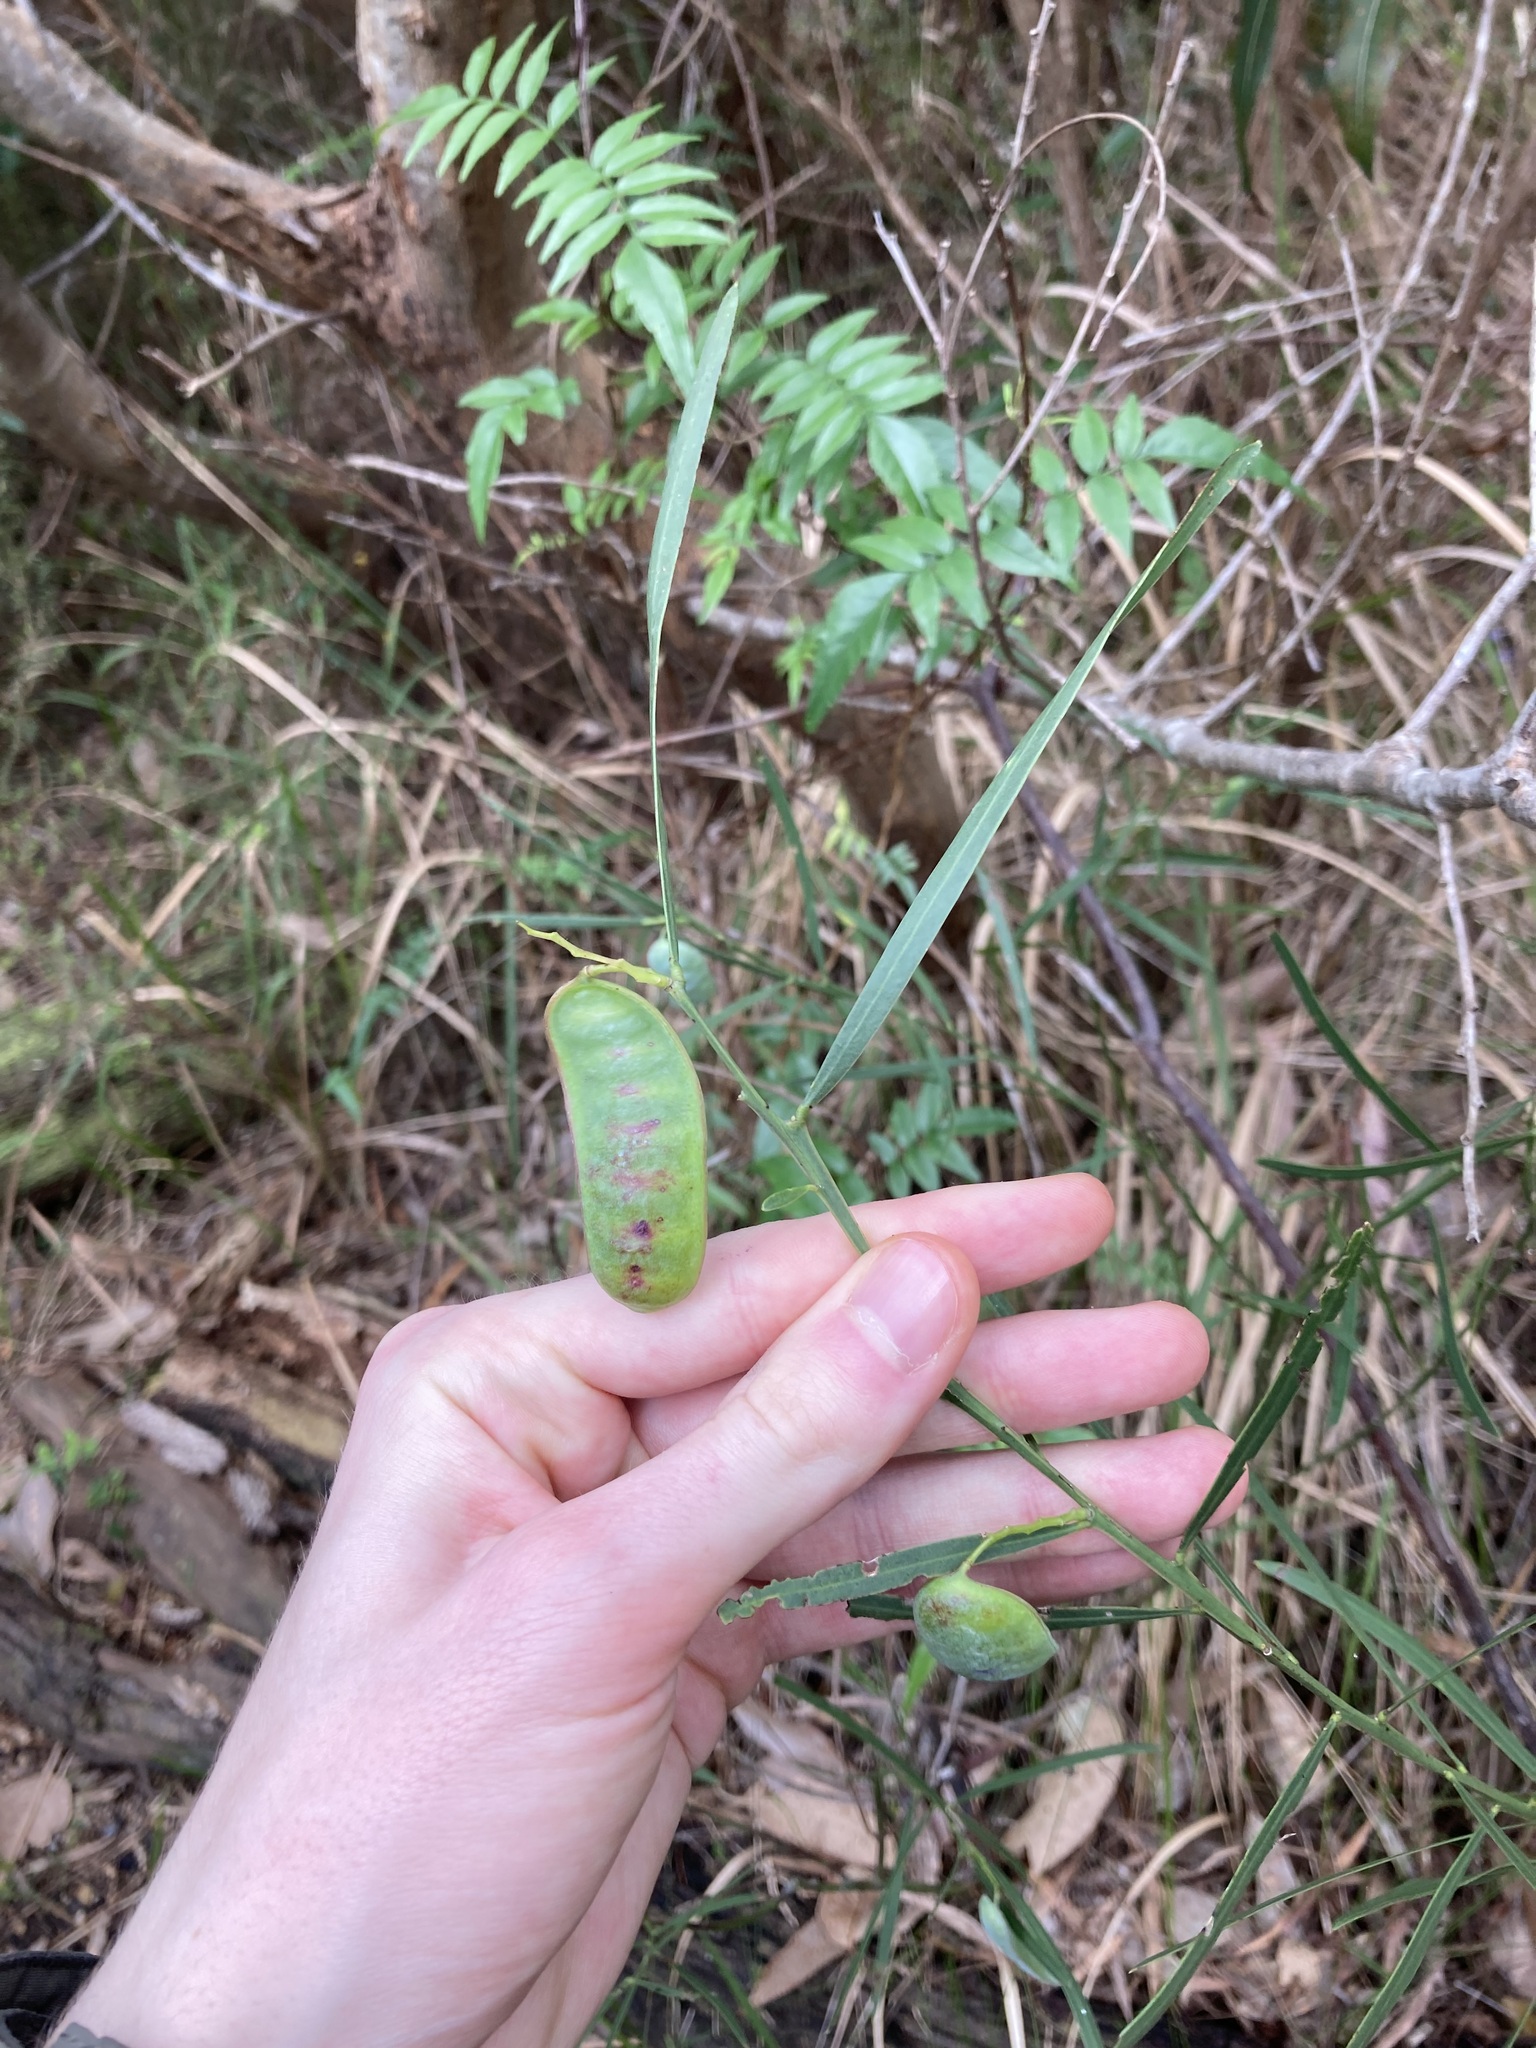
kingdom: Plantae
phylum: Tracheophyta
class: Magnoliopsida
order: Fabales
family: Fabaceae
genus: Acacia
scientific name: Acacia suaveolens
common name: Sweet acacia
